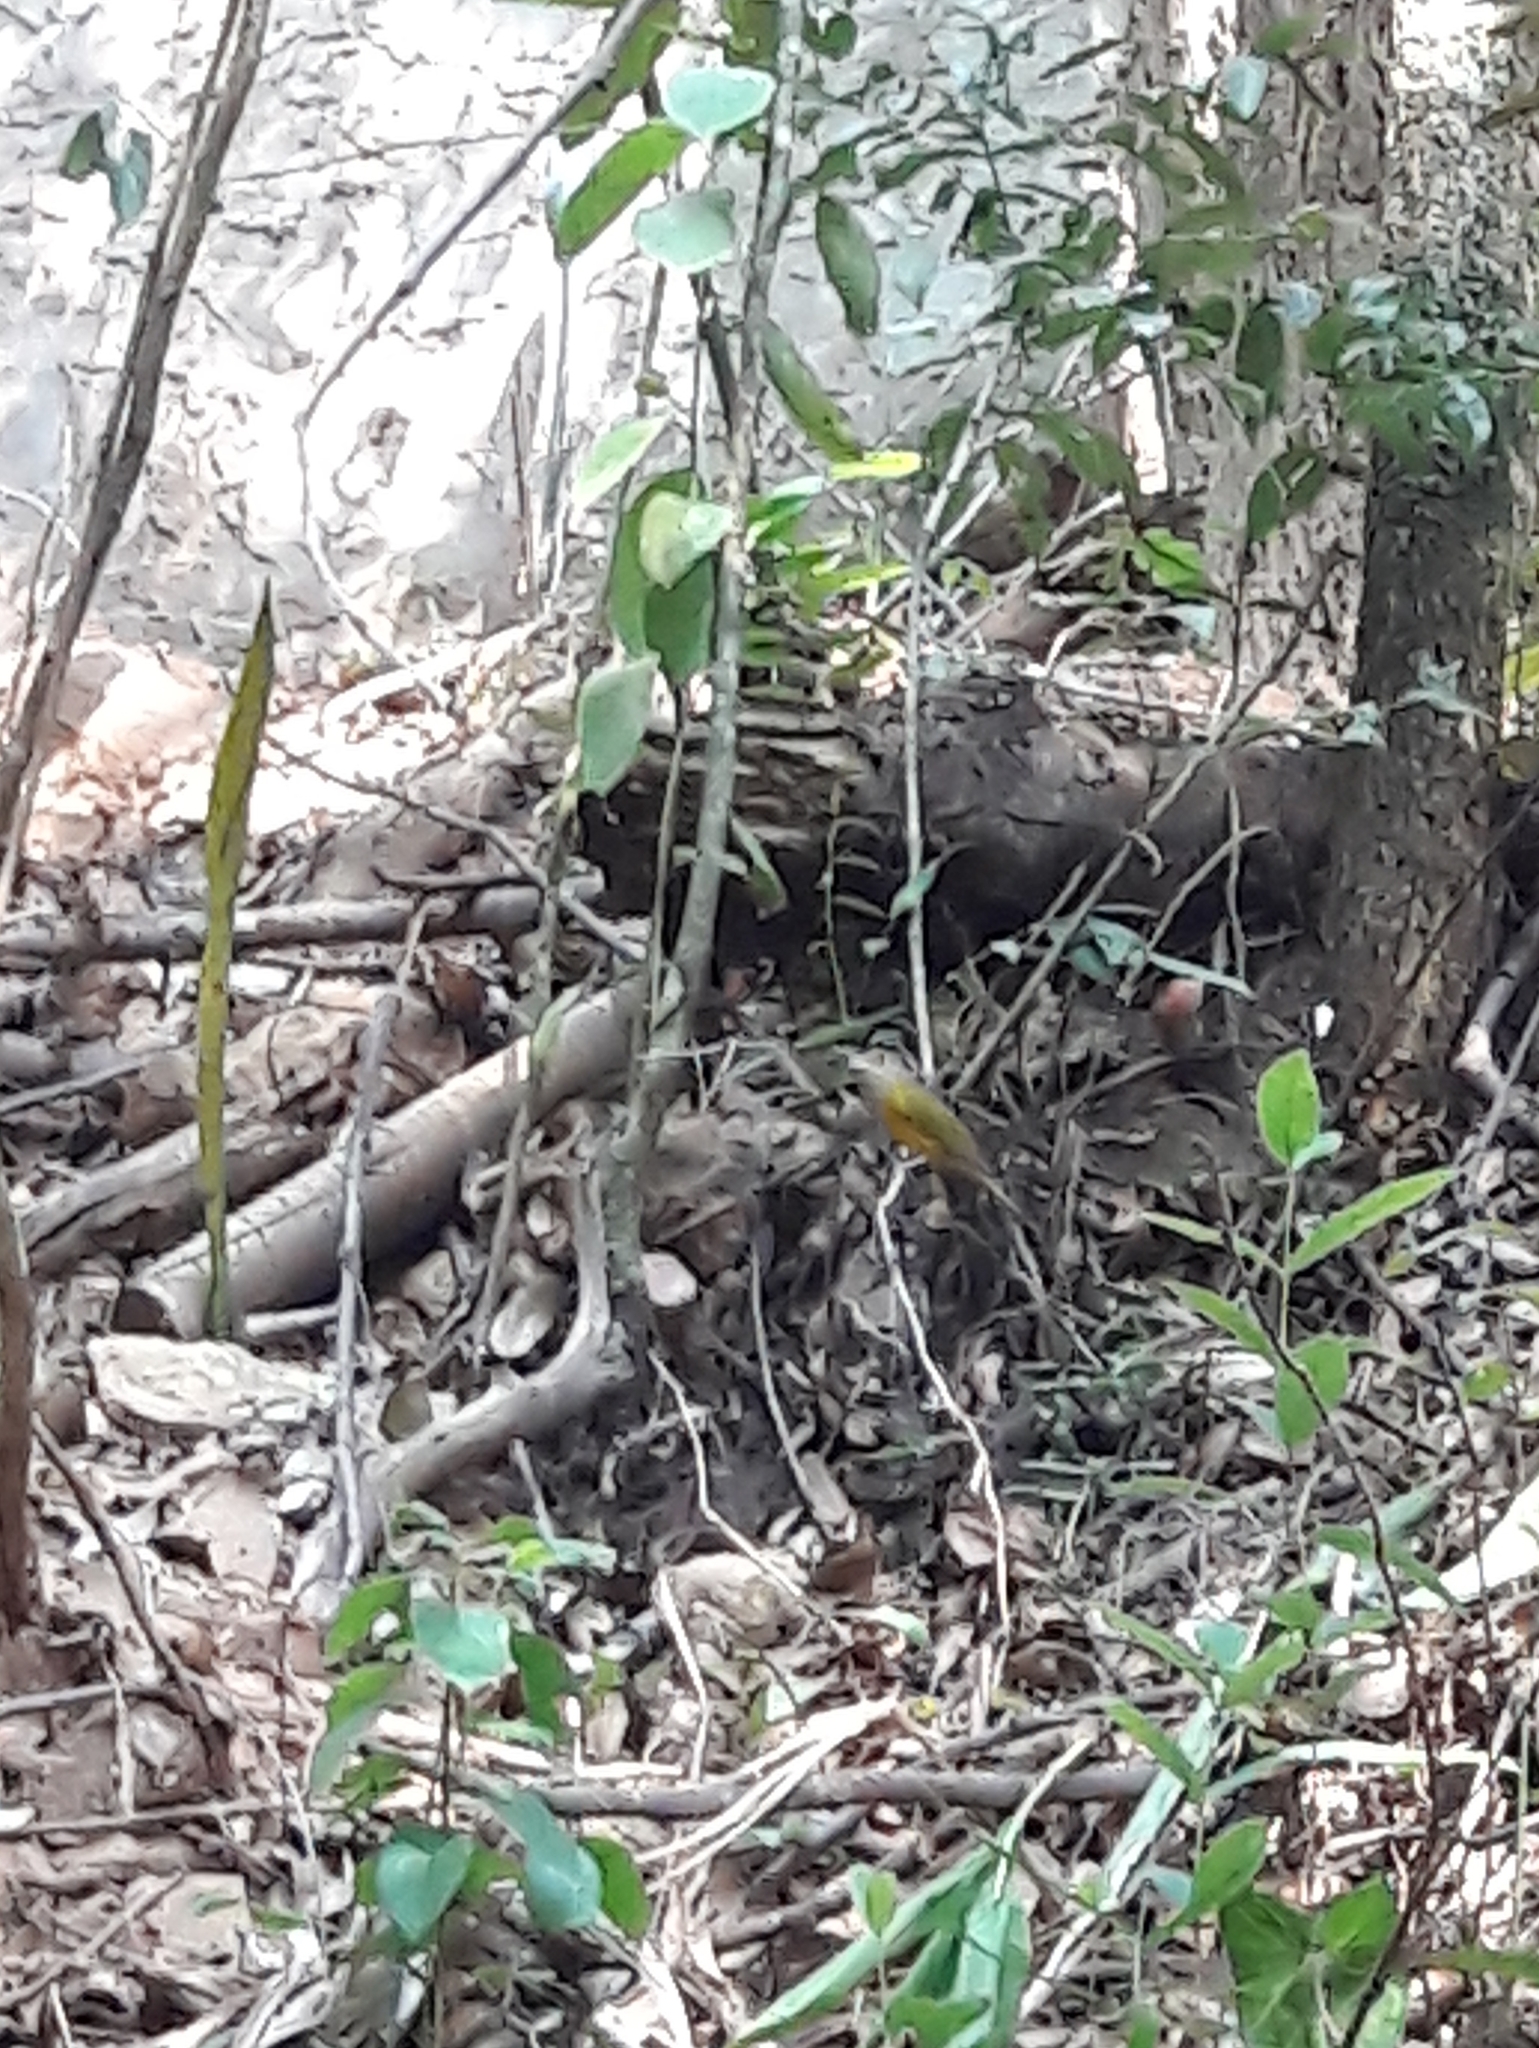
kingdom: Animalia
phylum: Chordata
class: Aves
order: Passeriformes
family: Thraupidae
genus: Eucometis
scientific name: Eucometis penicillata
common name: Grey-headed tanager
